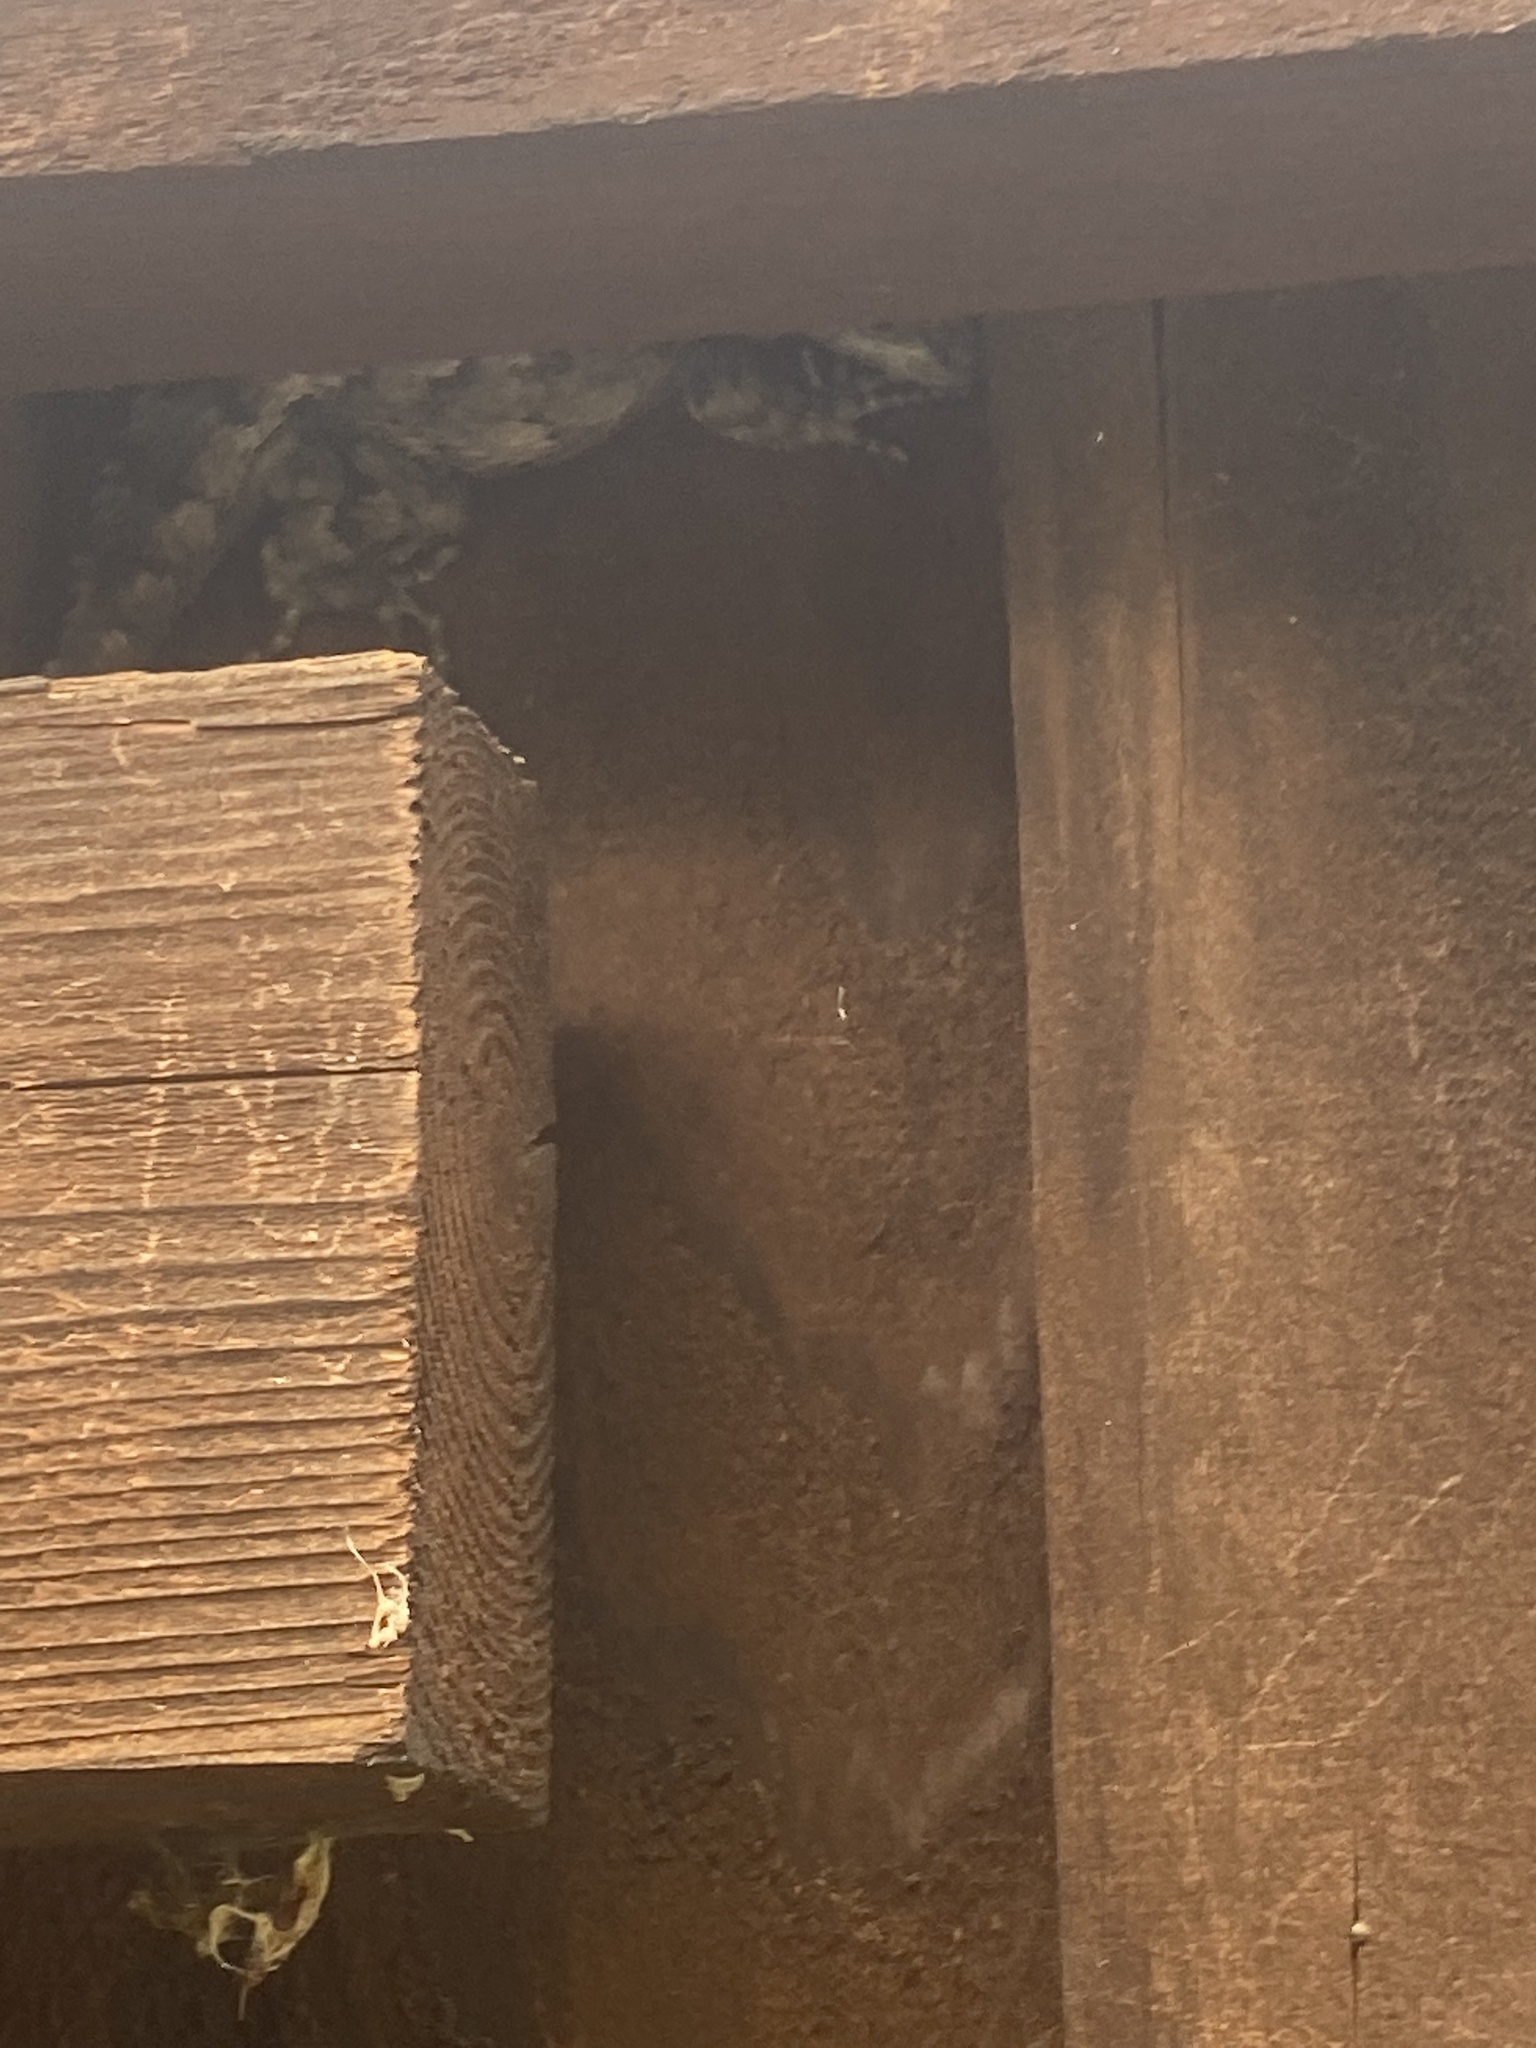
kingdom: Animalia
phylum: Chordata
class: Squamata
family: Phrynosomatidae
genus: Sceloporus
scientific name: Sceloporus olivaceus
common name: Texas spiny lizard
